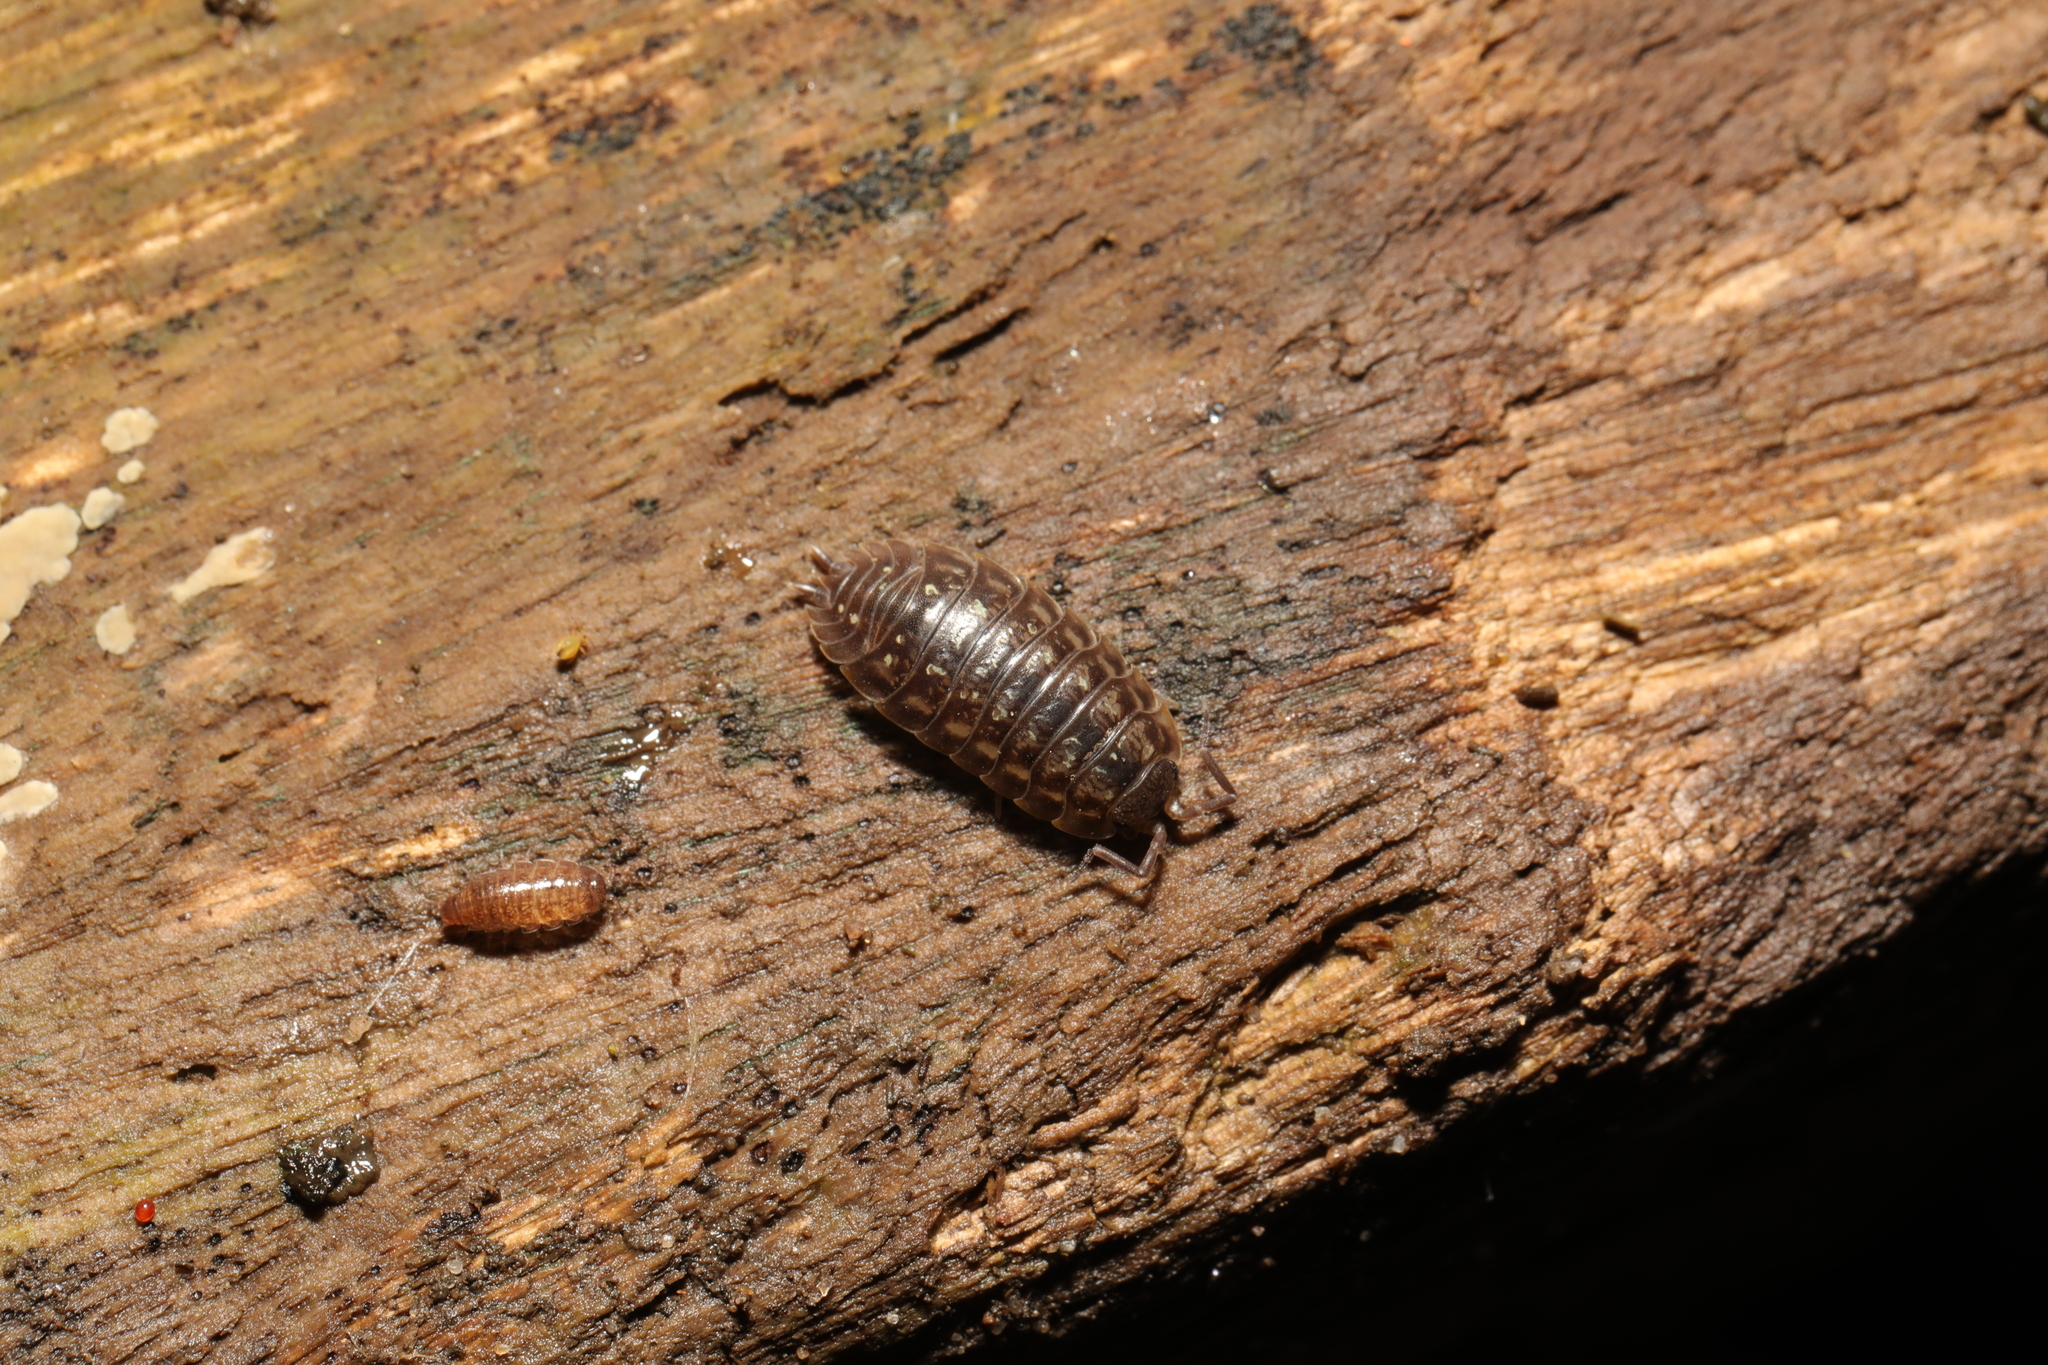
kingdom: Animalia
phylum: Arthropoda
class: Malacostraca
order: Isopoda
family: Trichoniscidae
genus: Trichoniscus
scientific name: Trichoniscus
